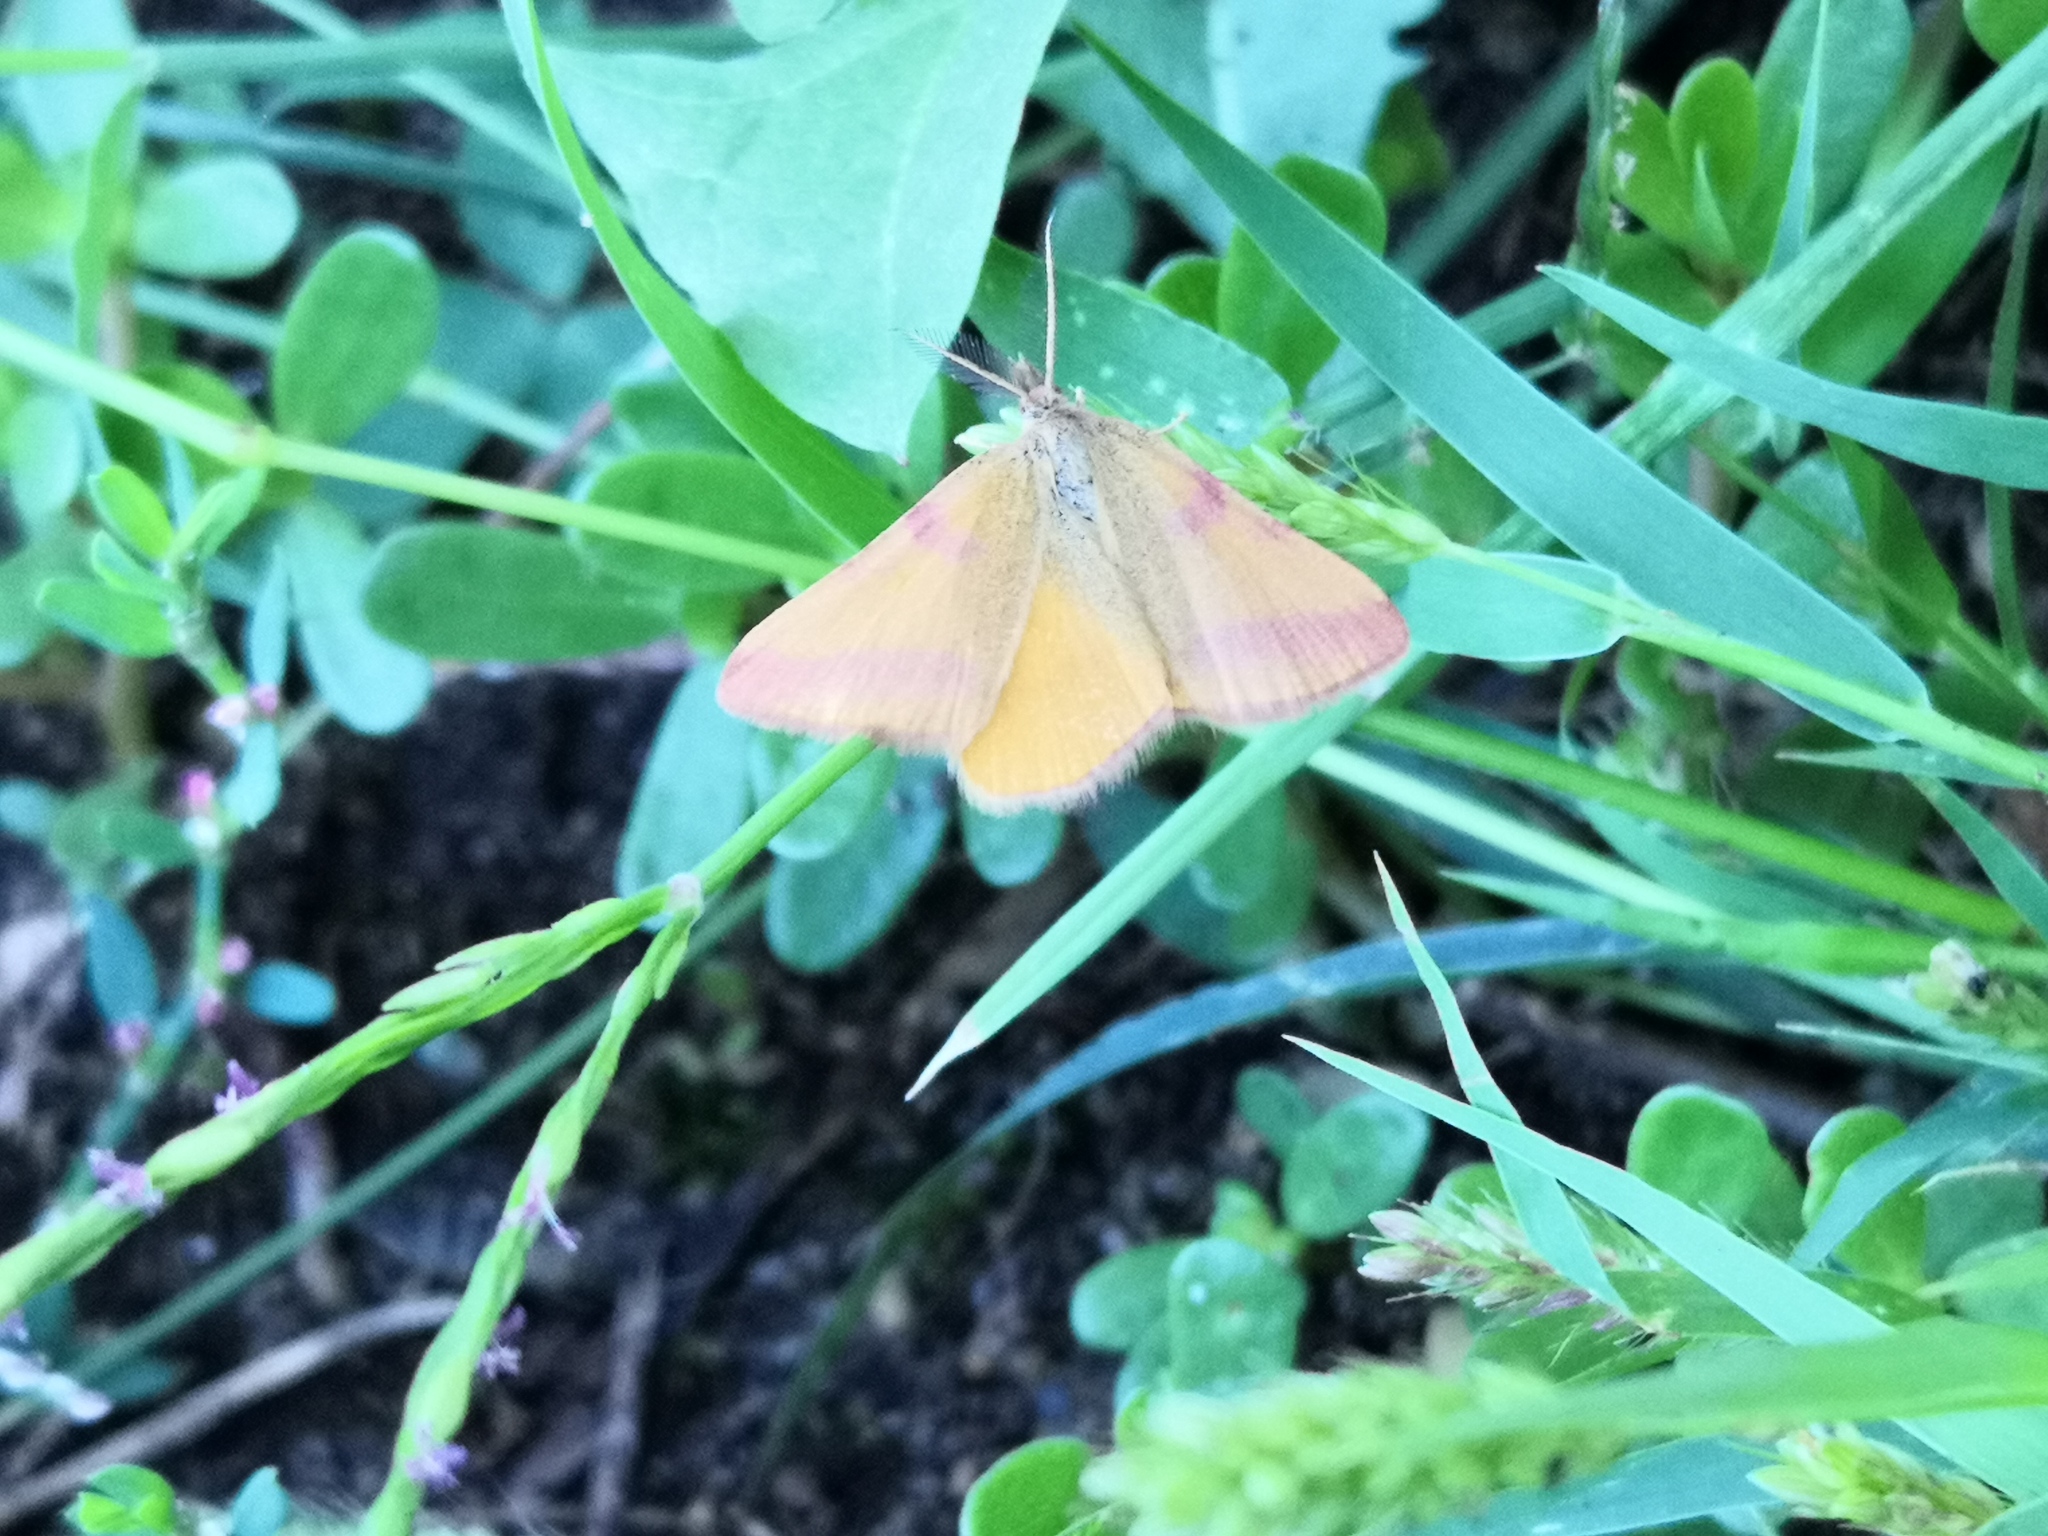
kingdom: Animalia
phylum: Arthropoda
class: Insecta
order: Lepidoptera
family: Geometridae
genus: Lythria
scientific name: Lythria purpuraria
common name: Purple-barred yellow
